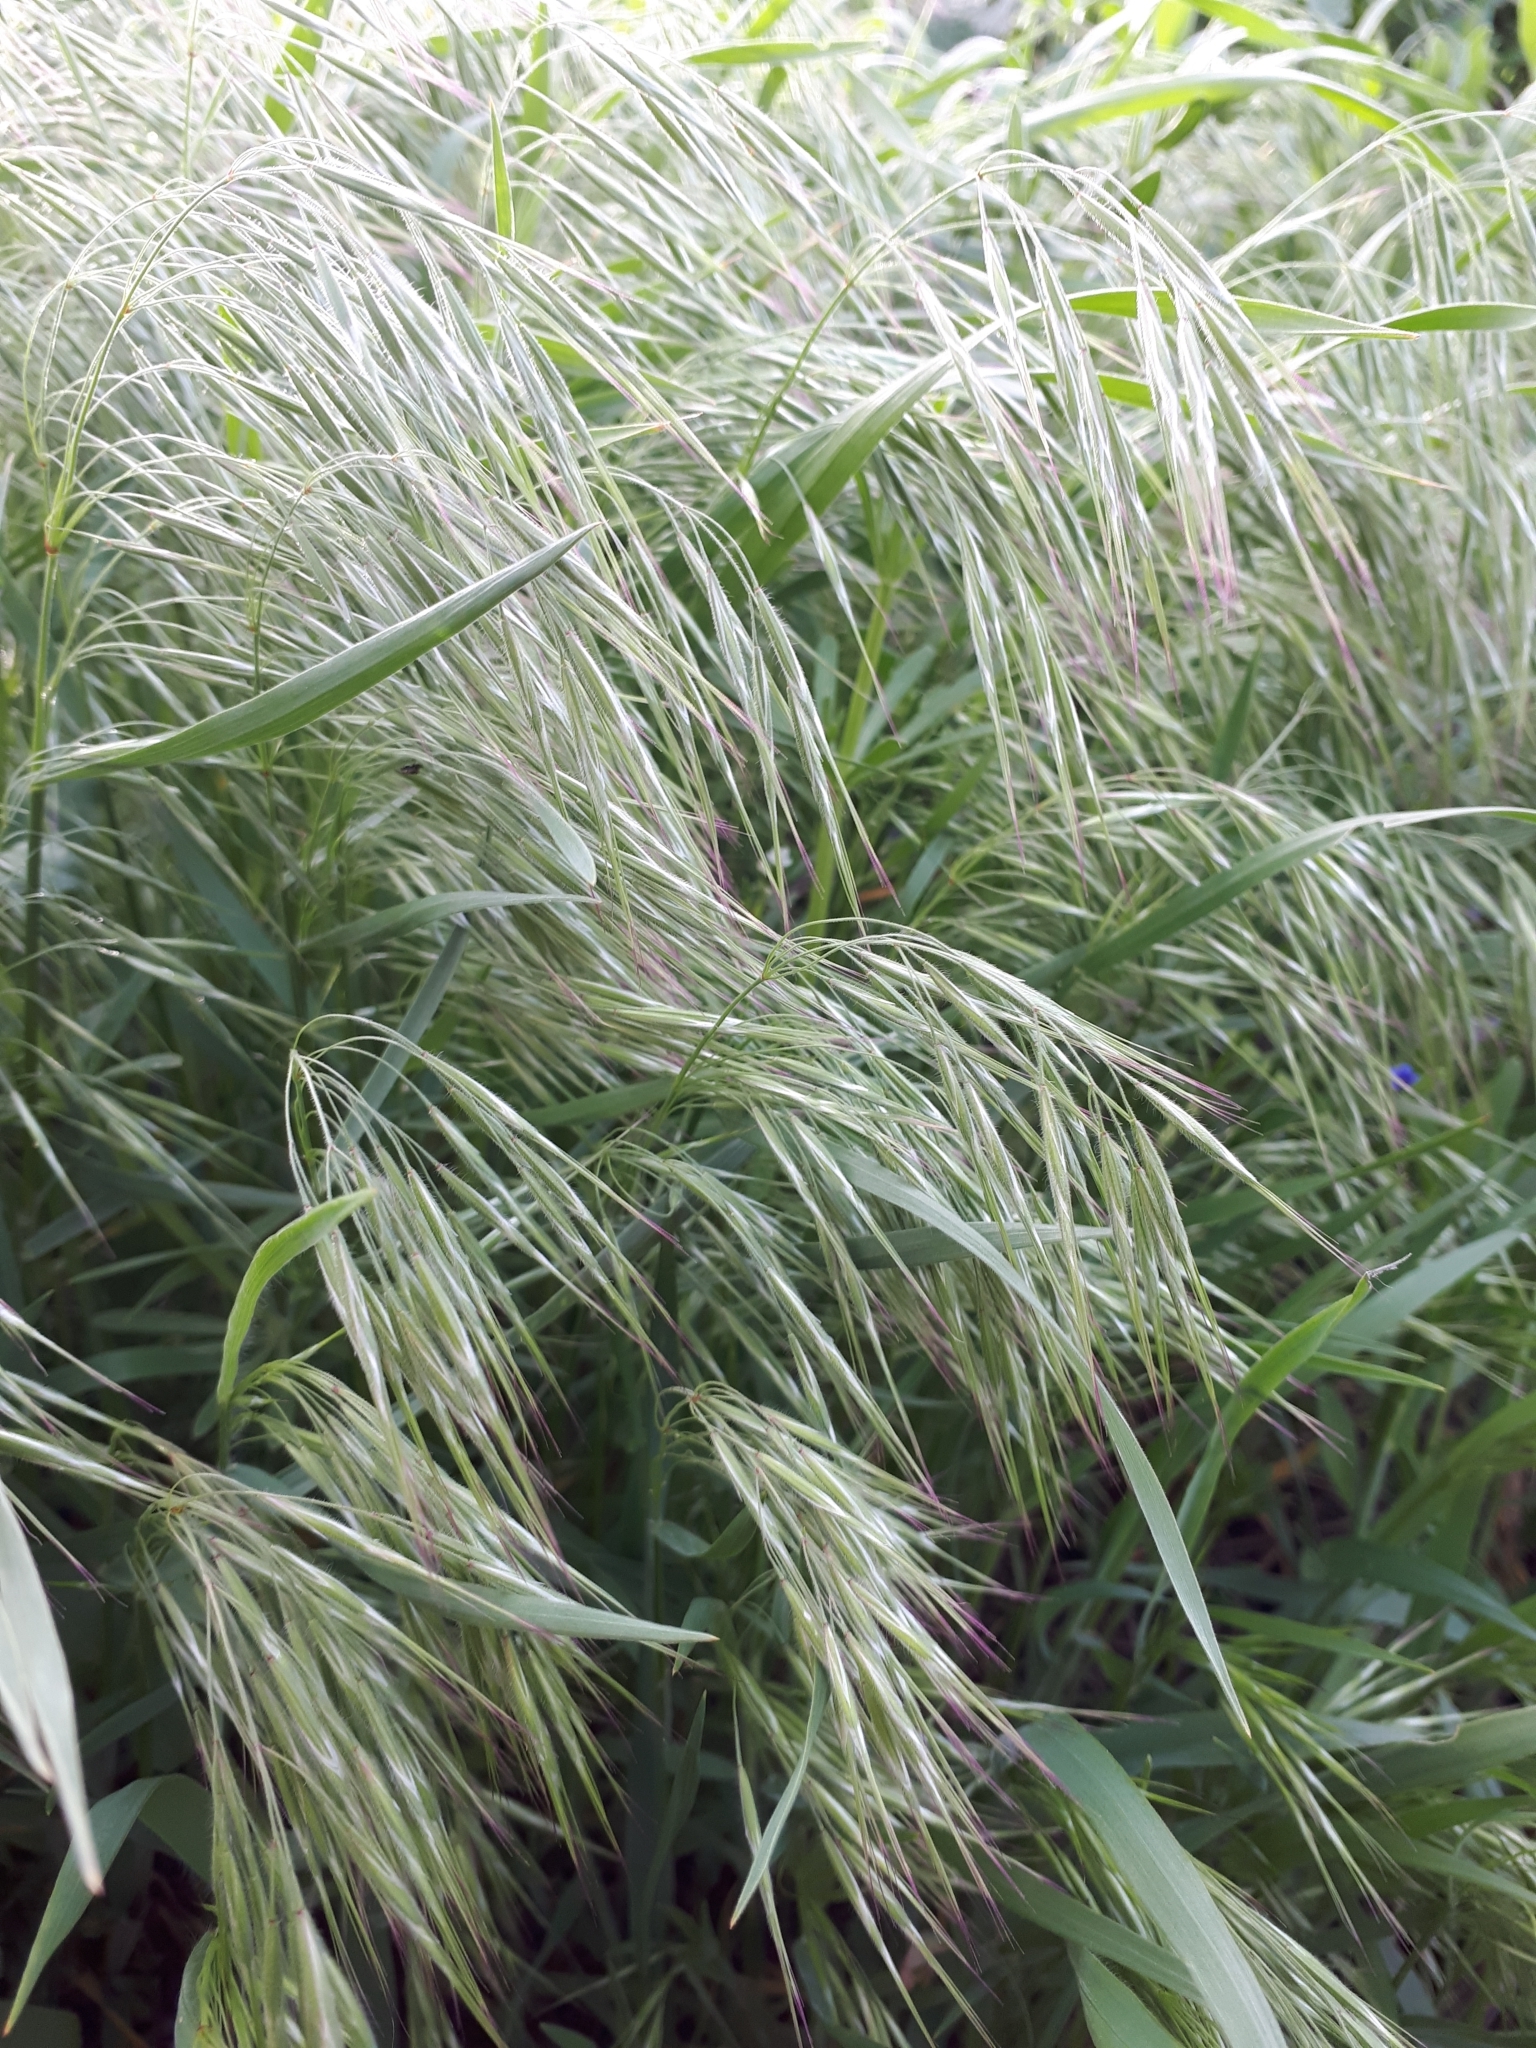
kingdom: Plantae
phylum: Tracheophyta
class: Liliopsida
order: Poales
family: Poaceae
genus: Bromus
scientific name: Bromus tectorum
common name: Cheatgrass
